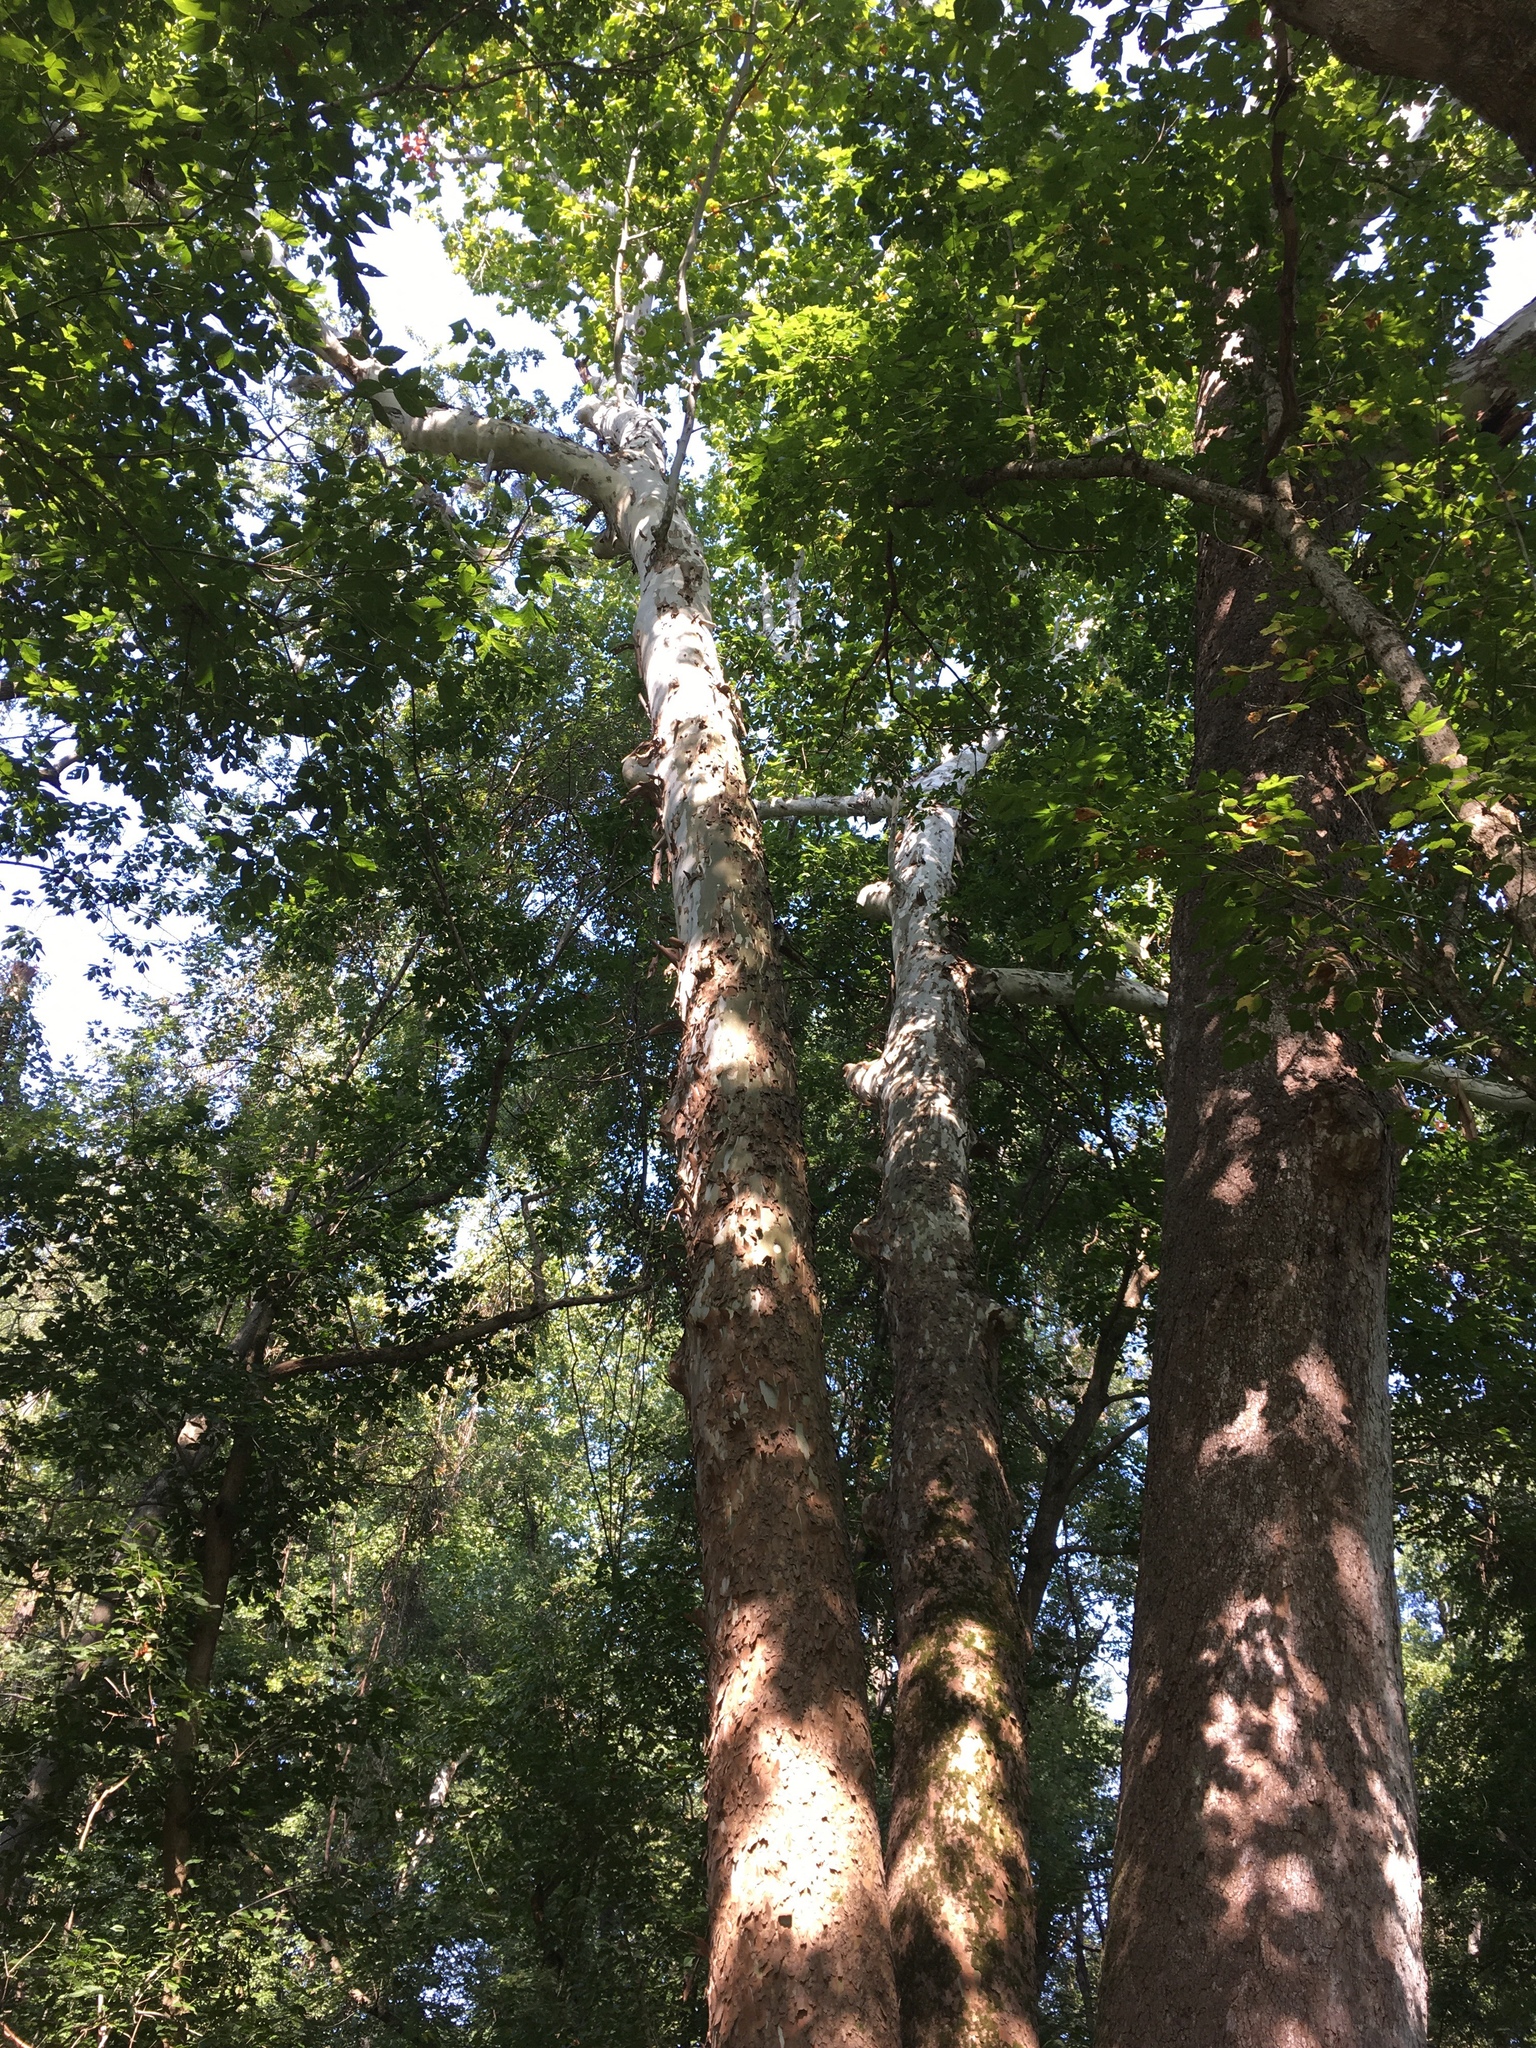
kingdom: Plantae
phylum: Tracheophyta
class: Magnoliopsida
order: Proteales
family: Platanaceae
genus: Platanus
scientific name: Platanus occidentalis
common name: American sycamore
